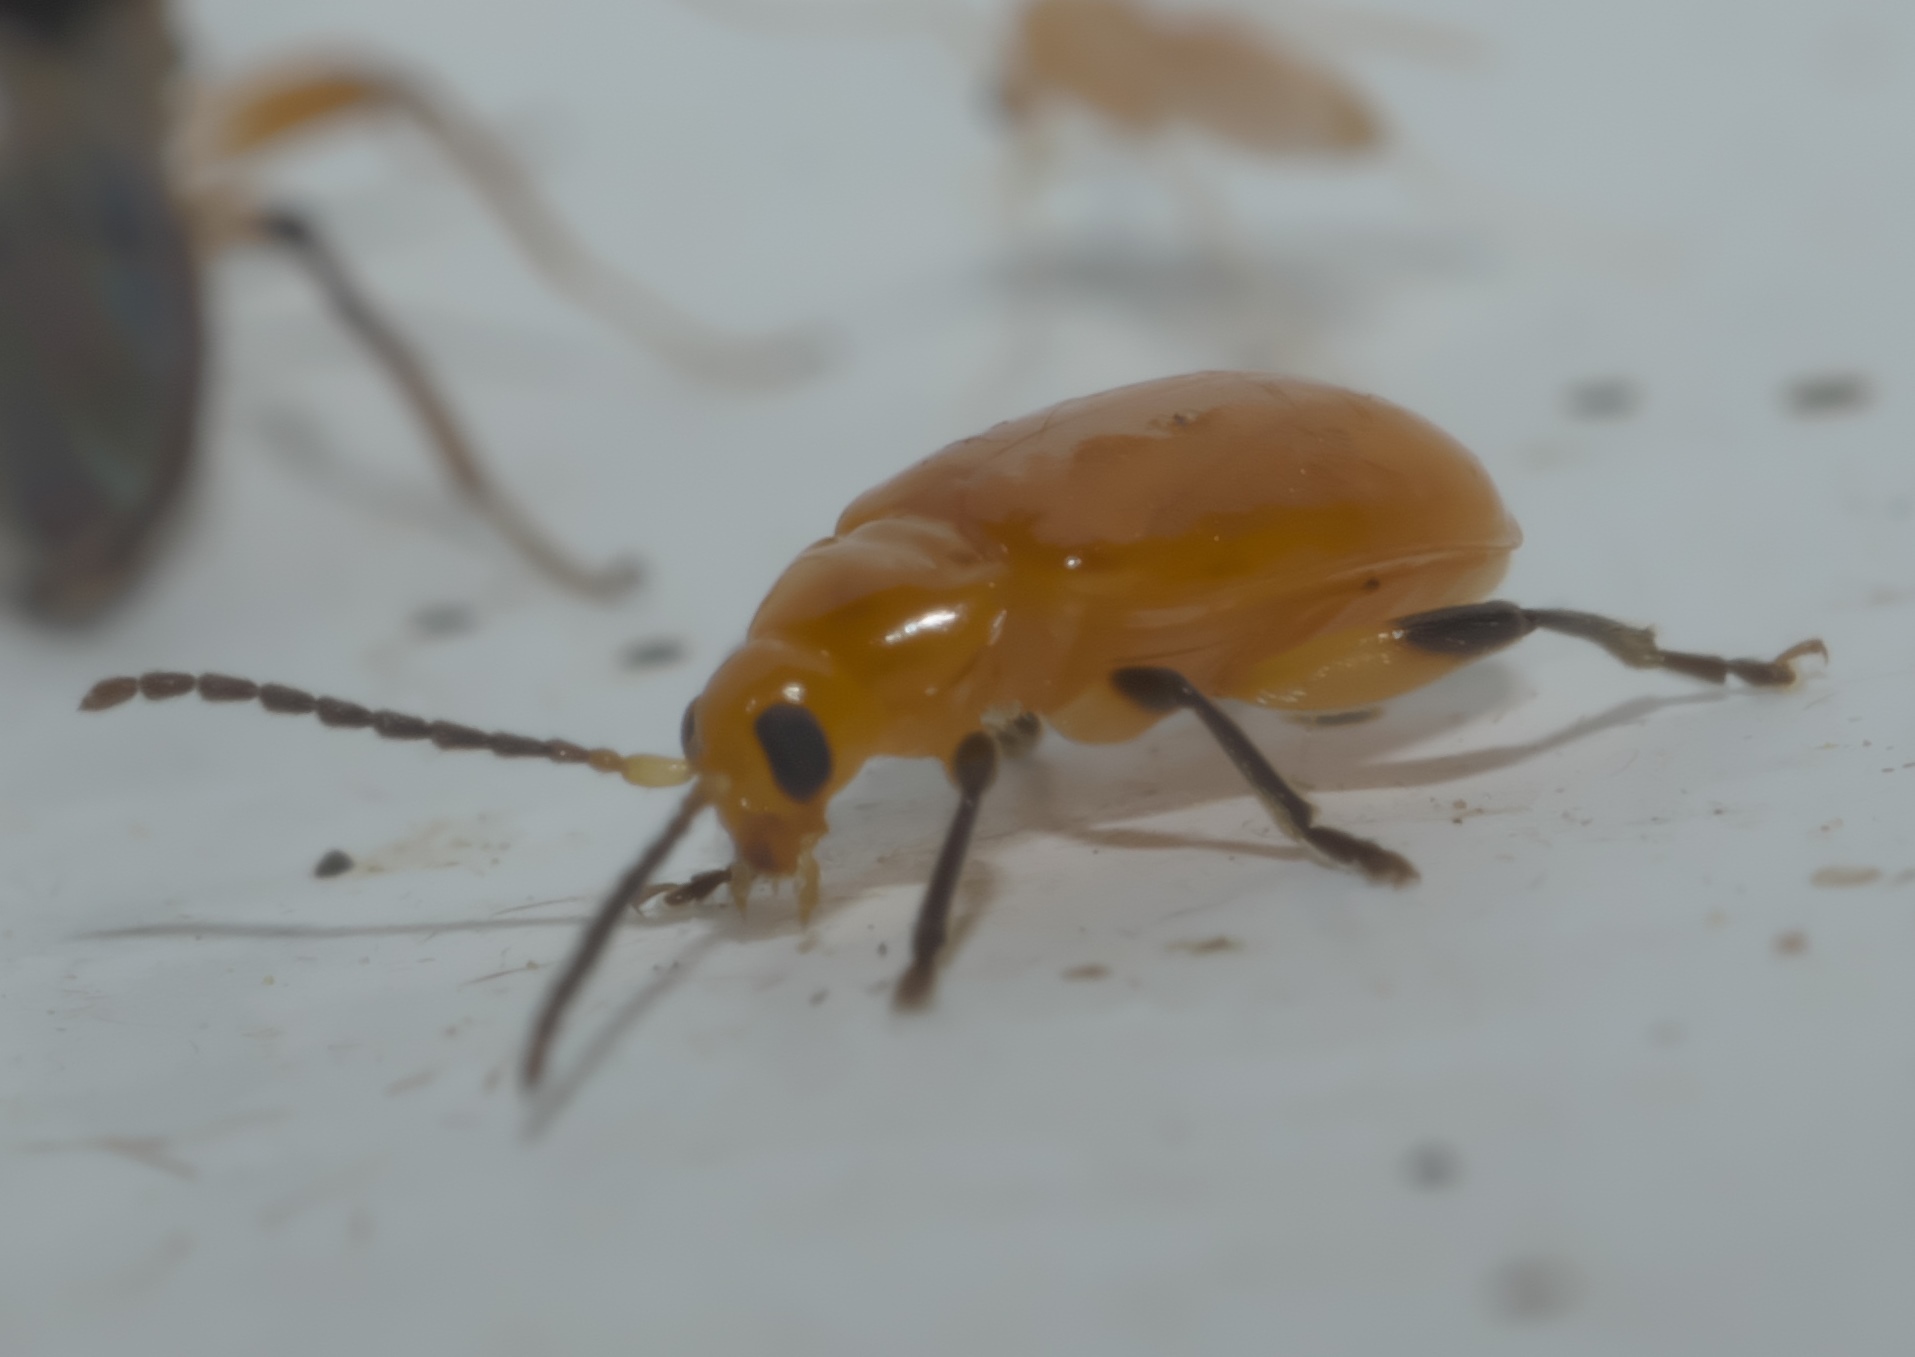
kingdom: Animalia
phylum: Arthropoda
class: Insecta
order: Coleoptera
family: Chrysomelidae
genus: Parchicola
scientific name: Parchicola tibialis
